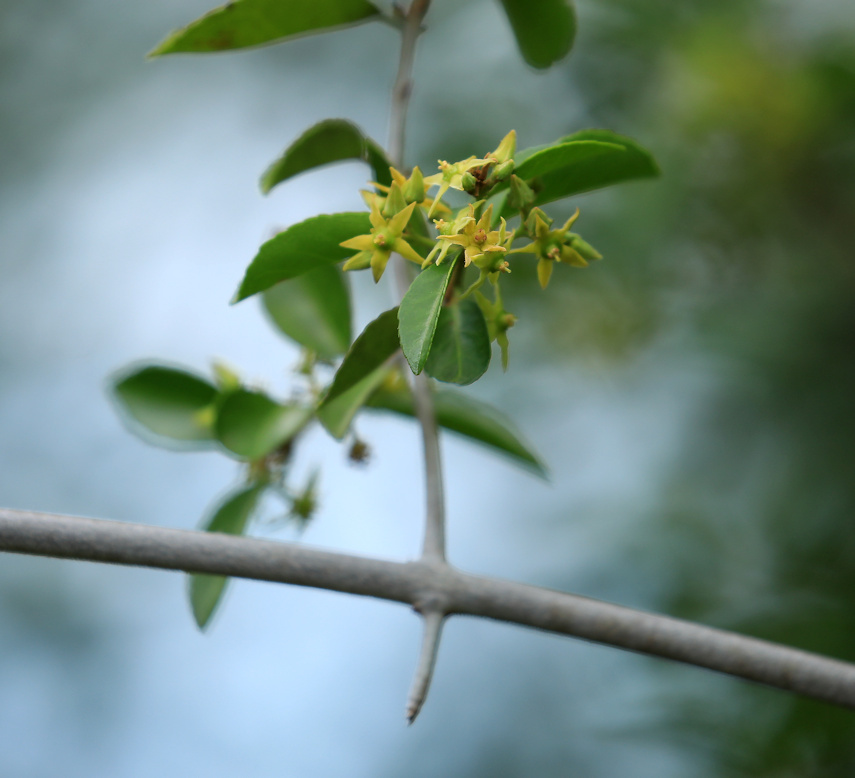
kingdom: Plantae
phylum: Tracheophyta
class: Magnoliopsida
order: Celastrales
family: Celastraceae
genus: Loeseneriella
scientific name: Loeseneriella crenata
